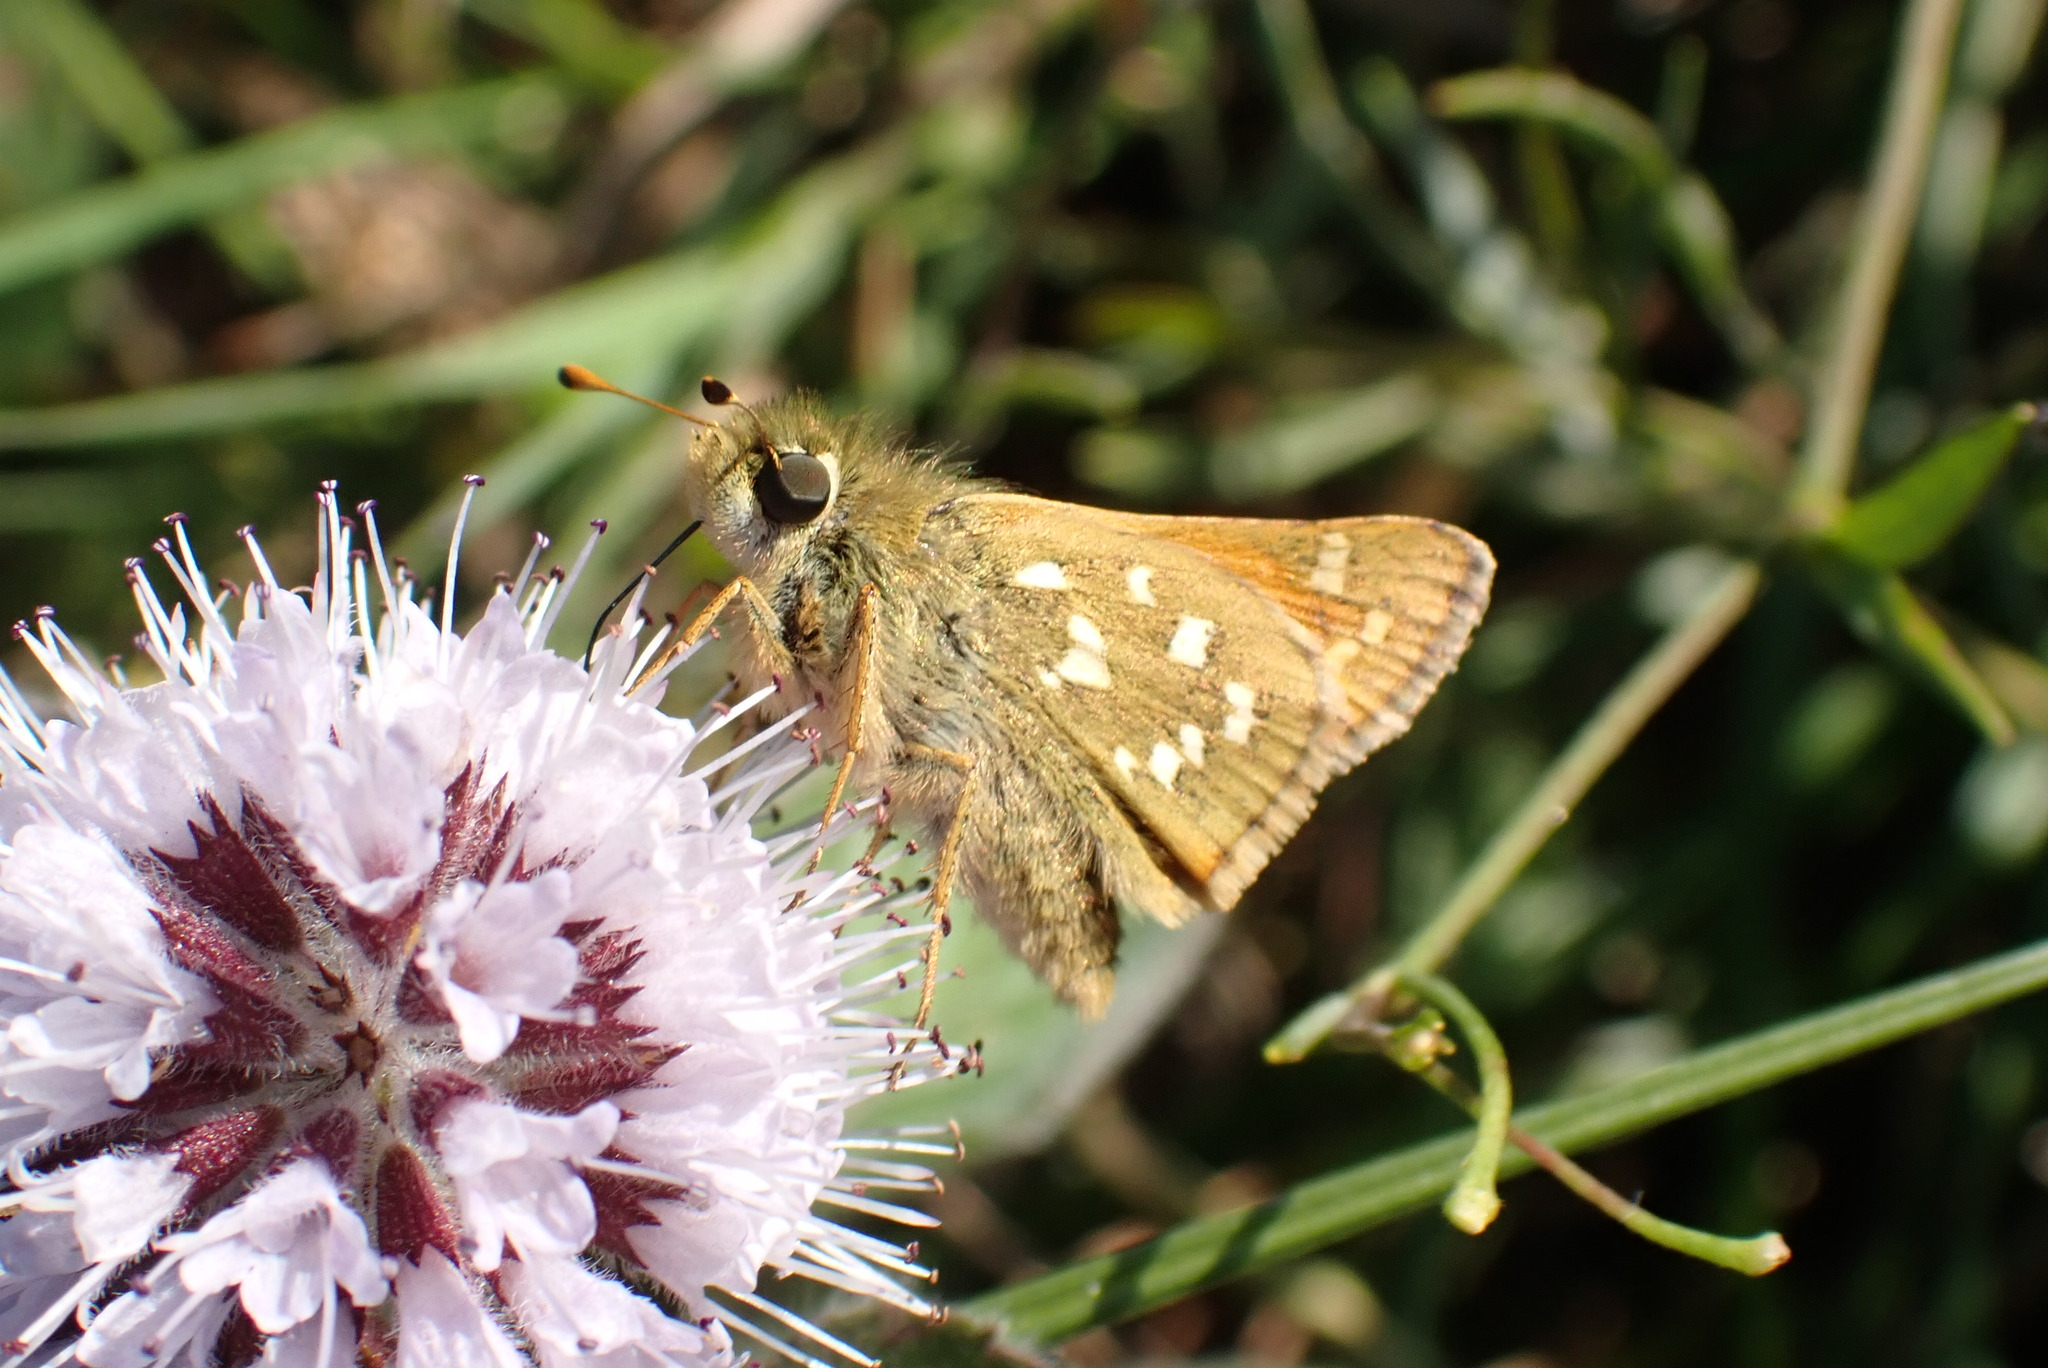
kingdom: Animalia
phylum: Arthropoda
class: Insecta
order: Lepidoptera
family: Hesperiidae
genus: Hesperia
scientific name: Hesperia comma
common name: Common branded skipper
